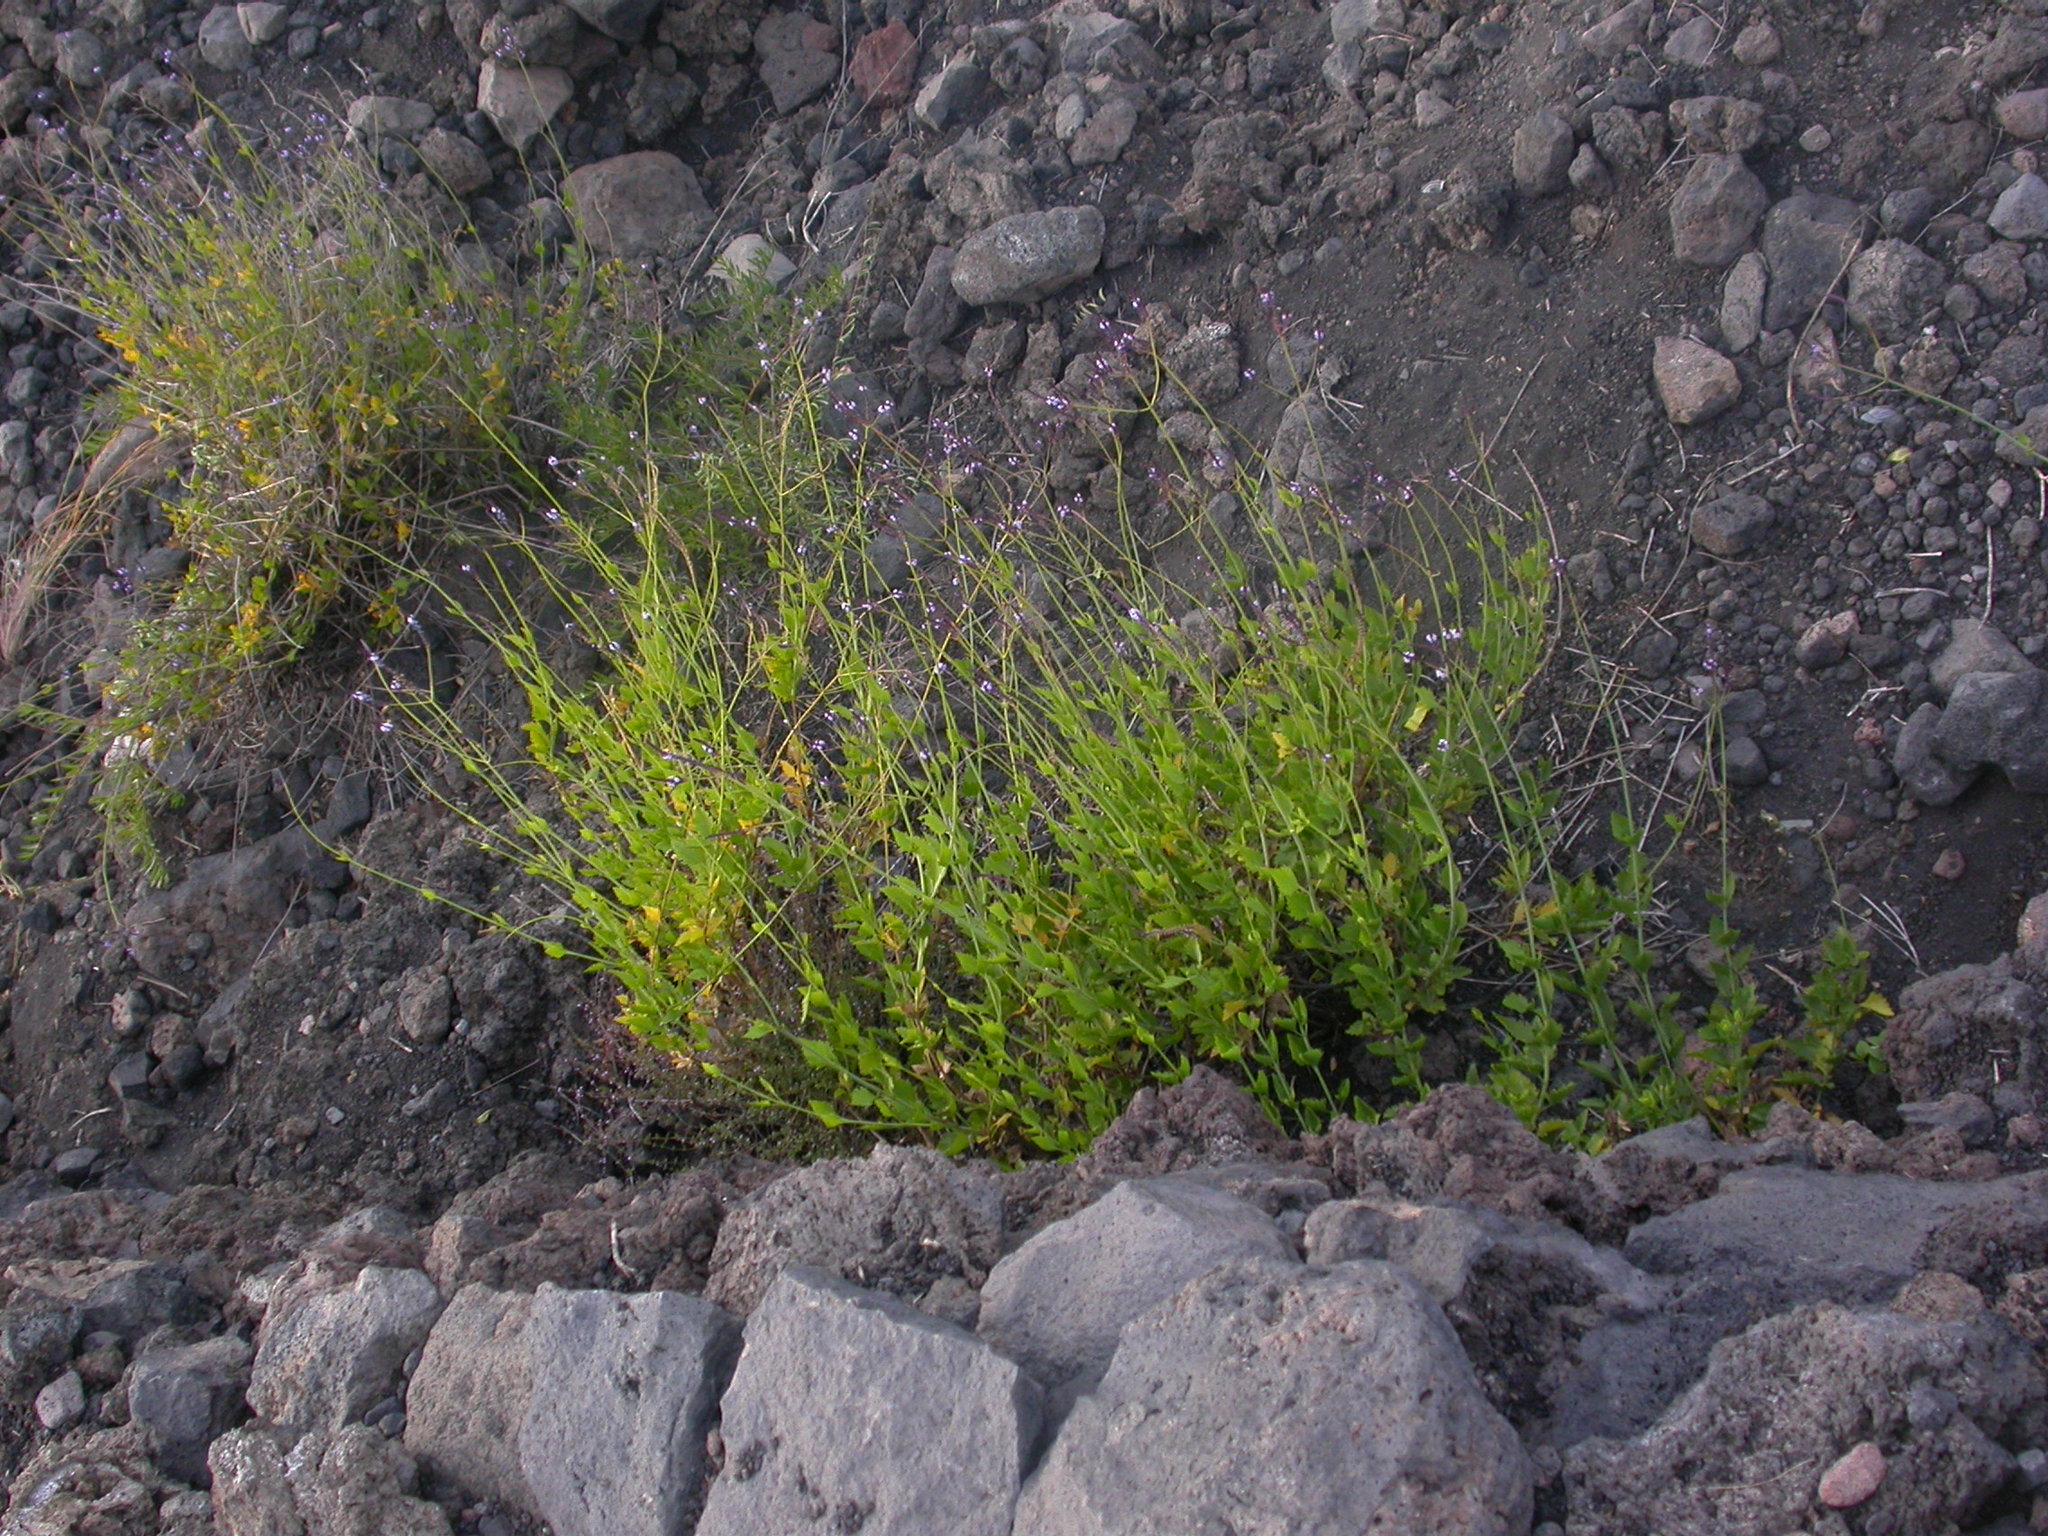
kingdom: Plantae
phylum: Tracheophyta
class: Magnoliopsida
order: Lamiales
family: Lamiaceae
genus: Lavandula
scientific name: Lavandula rotundifolia
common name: Round-leaf lavender
